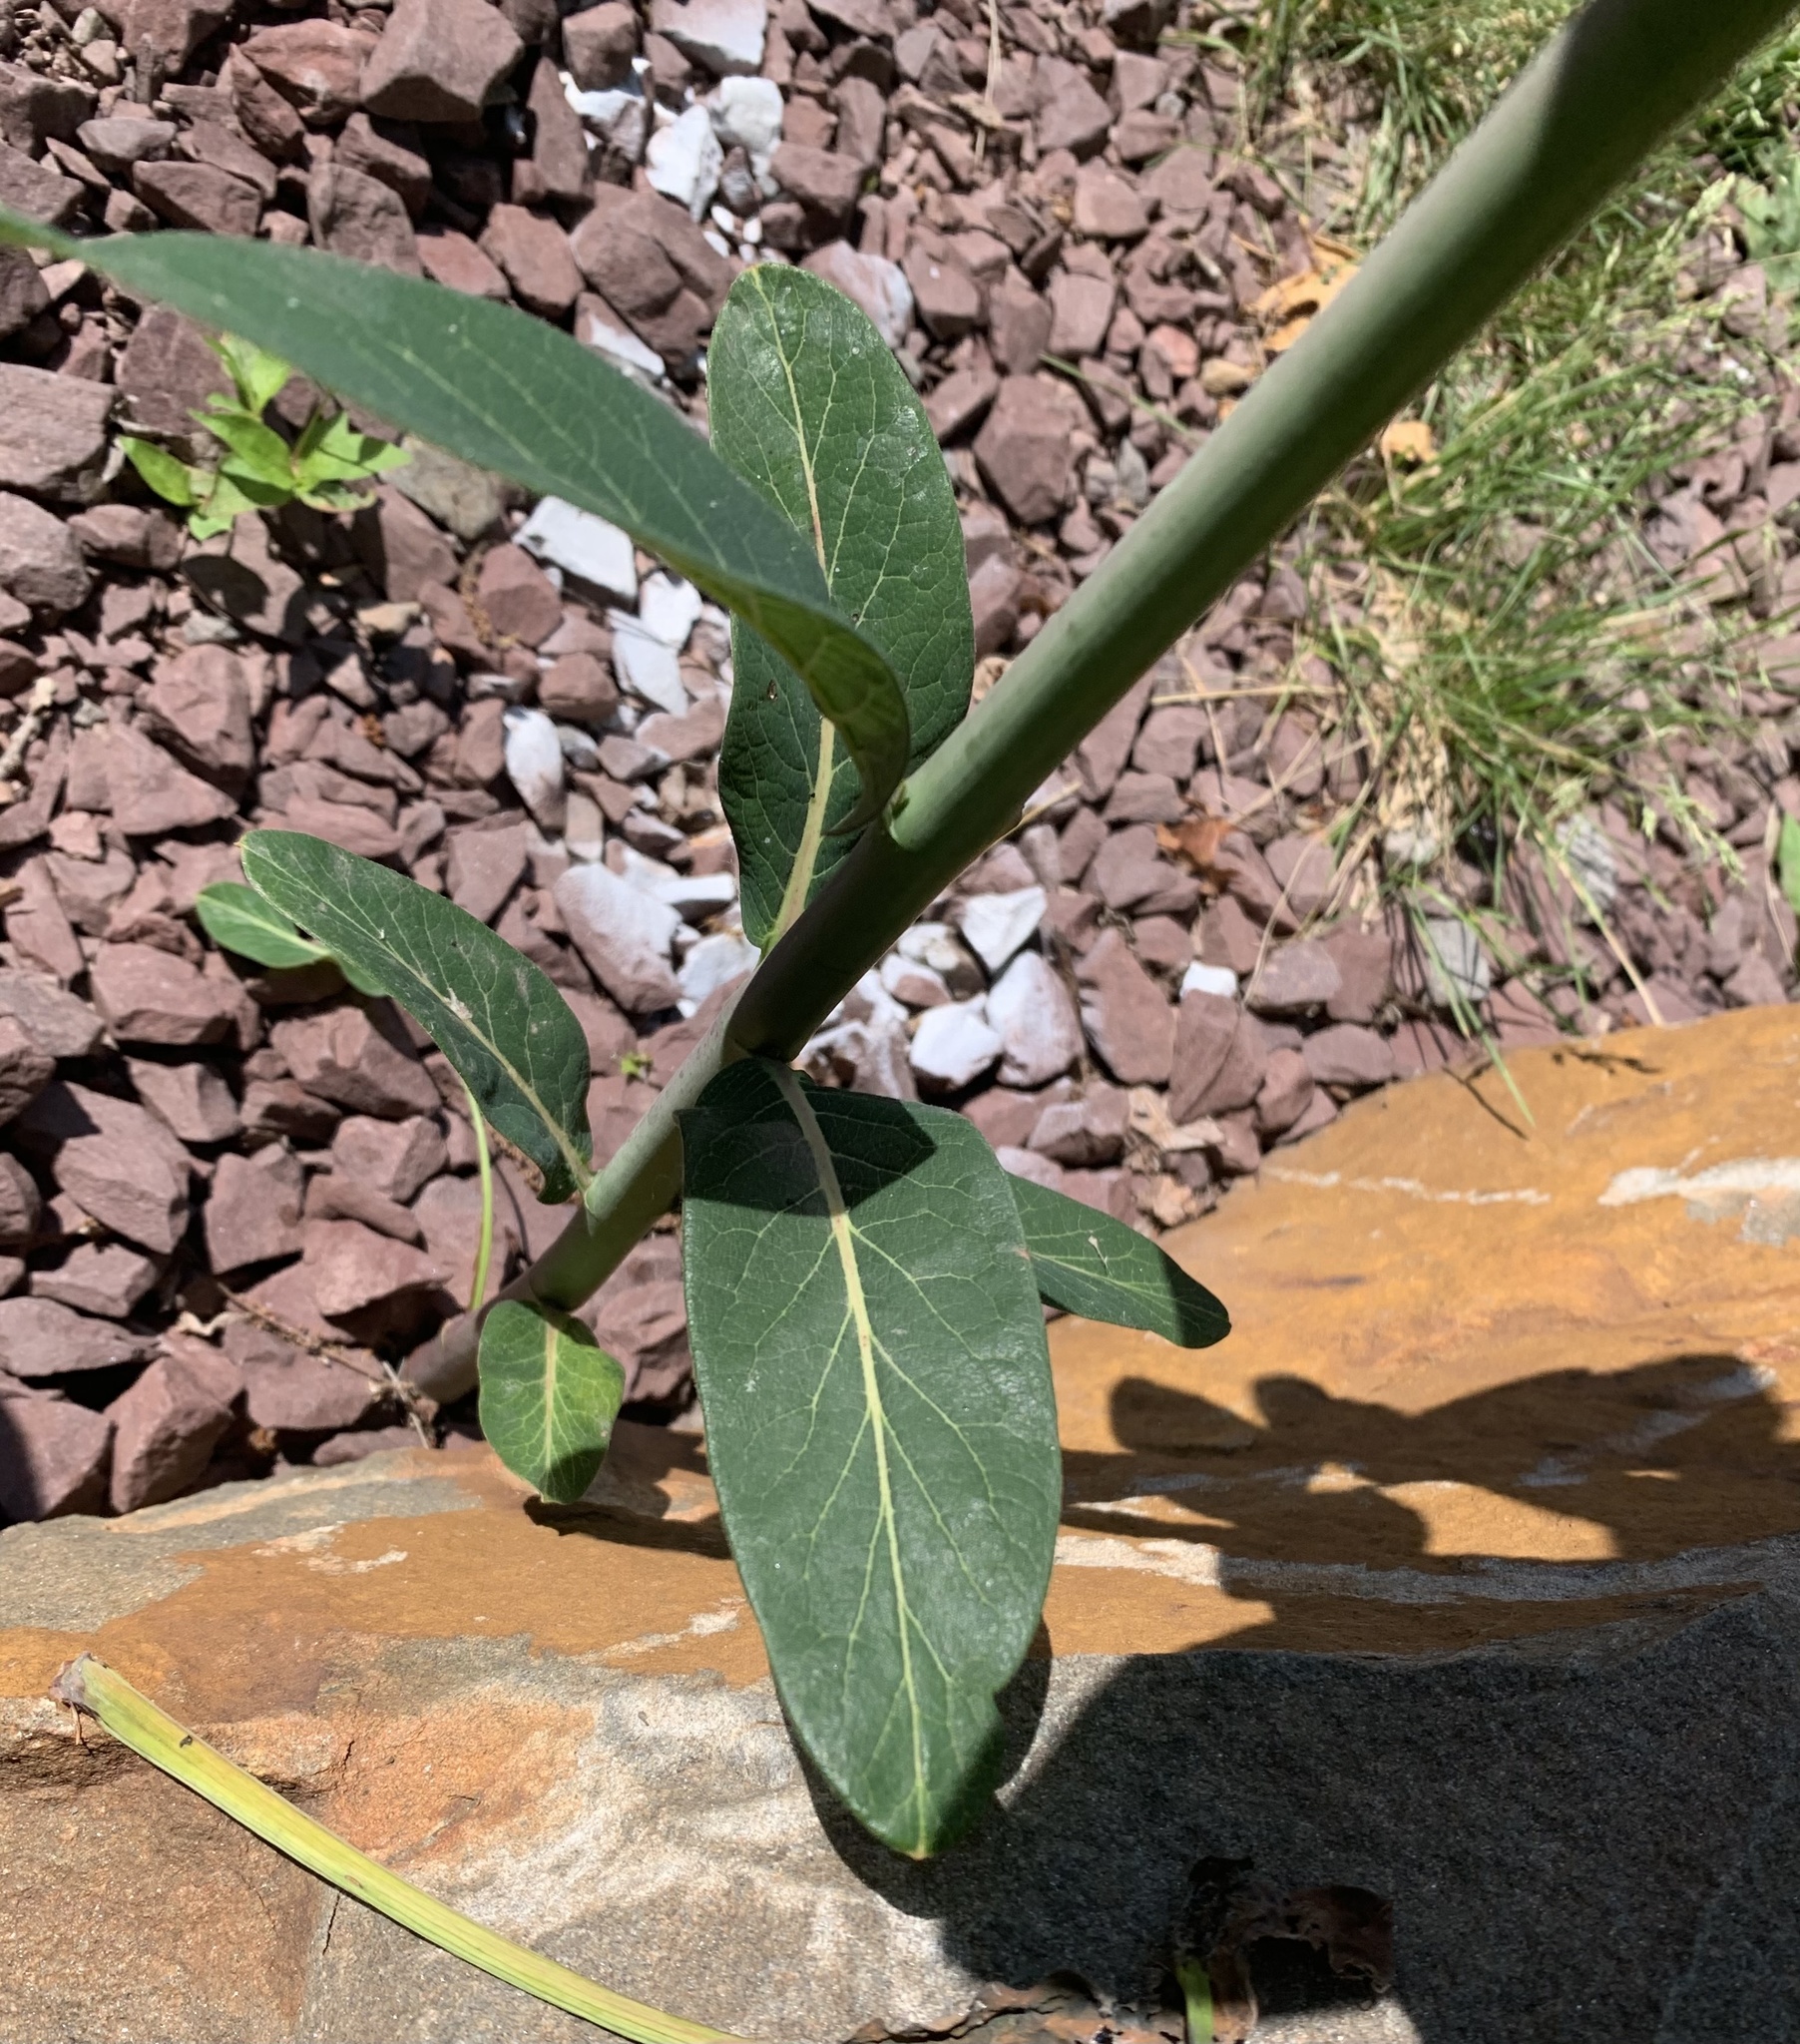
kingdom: Plantae
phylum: Tracheophyta
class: Magnoliopsida
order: Gentianales
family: Apocynaceae
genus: Apocynum
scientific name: Apocynum cannabinum
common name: Hemp dogbane
